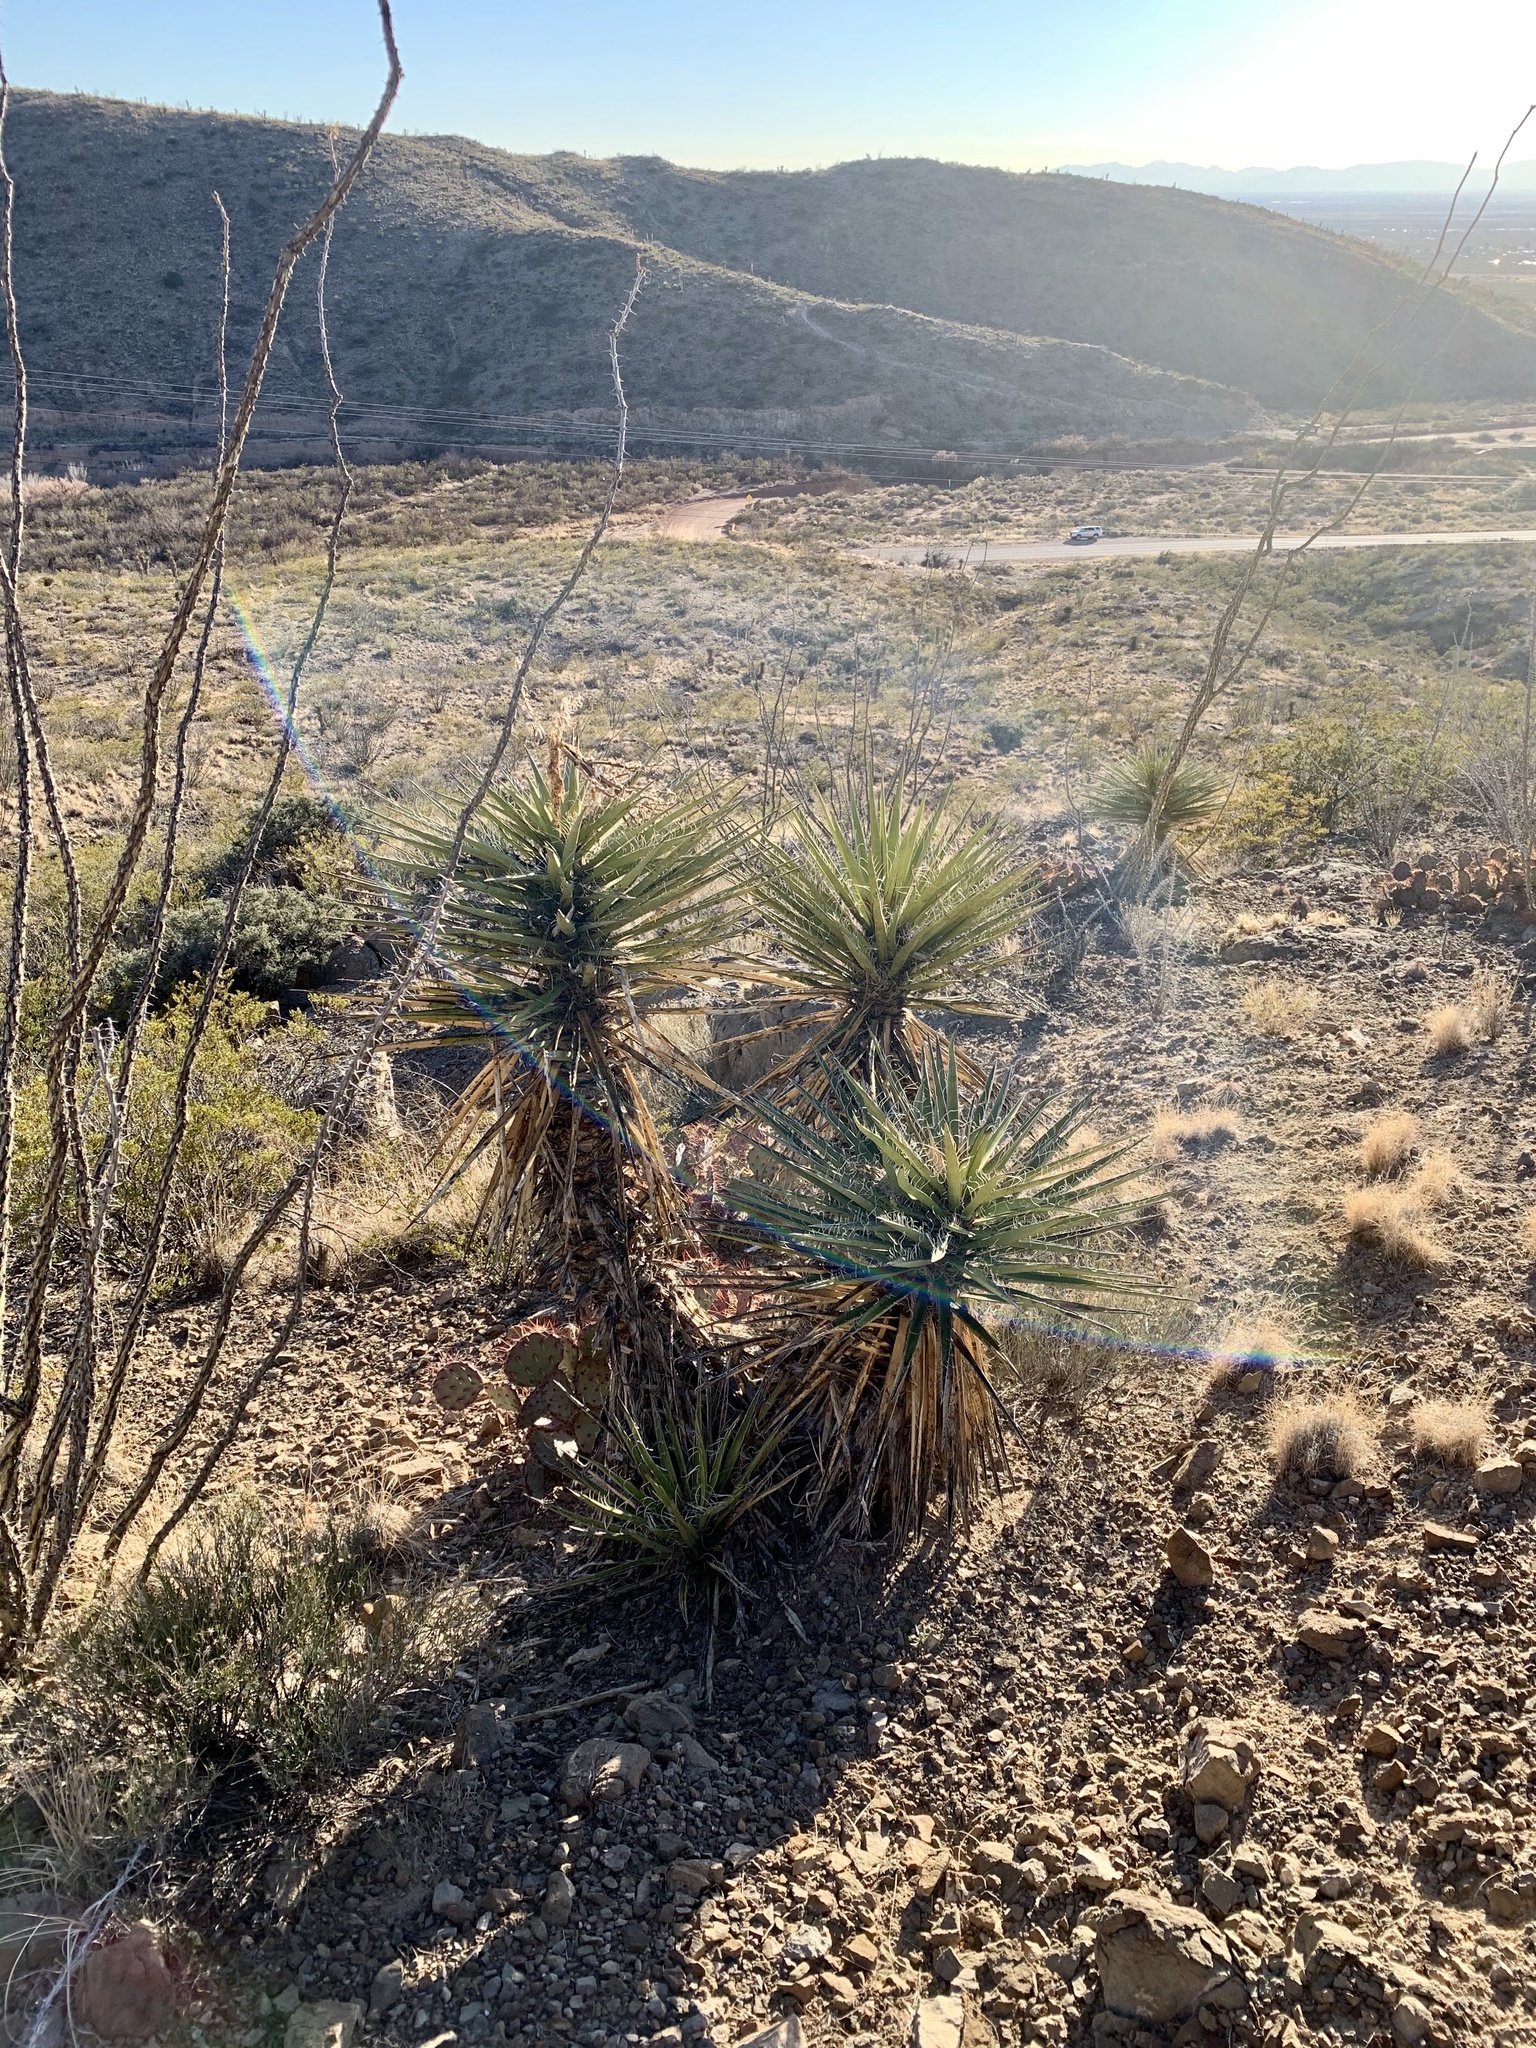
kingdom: Plantae
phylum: Tracheophyta
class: Liliopsida
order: Asparagales
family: Asparagaceae
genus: Yucca
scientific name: Yucca treculiana
